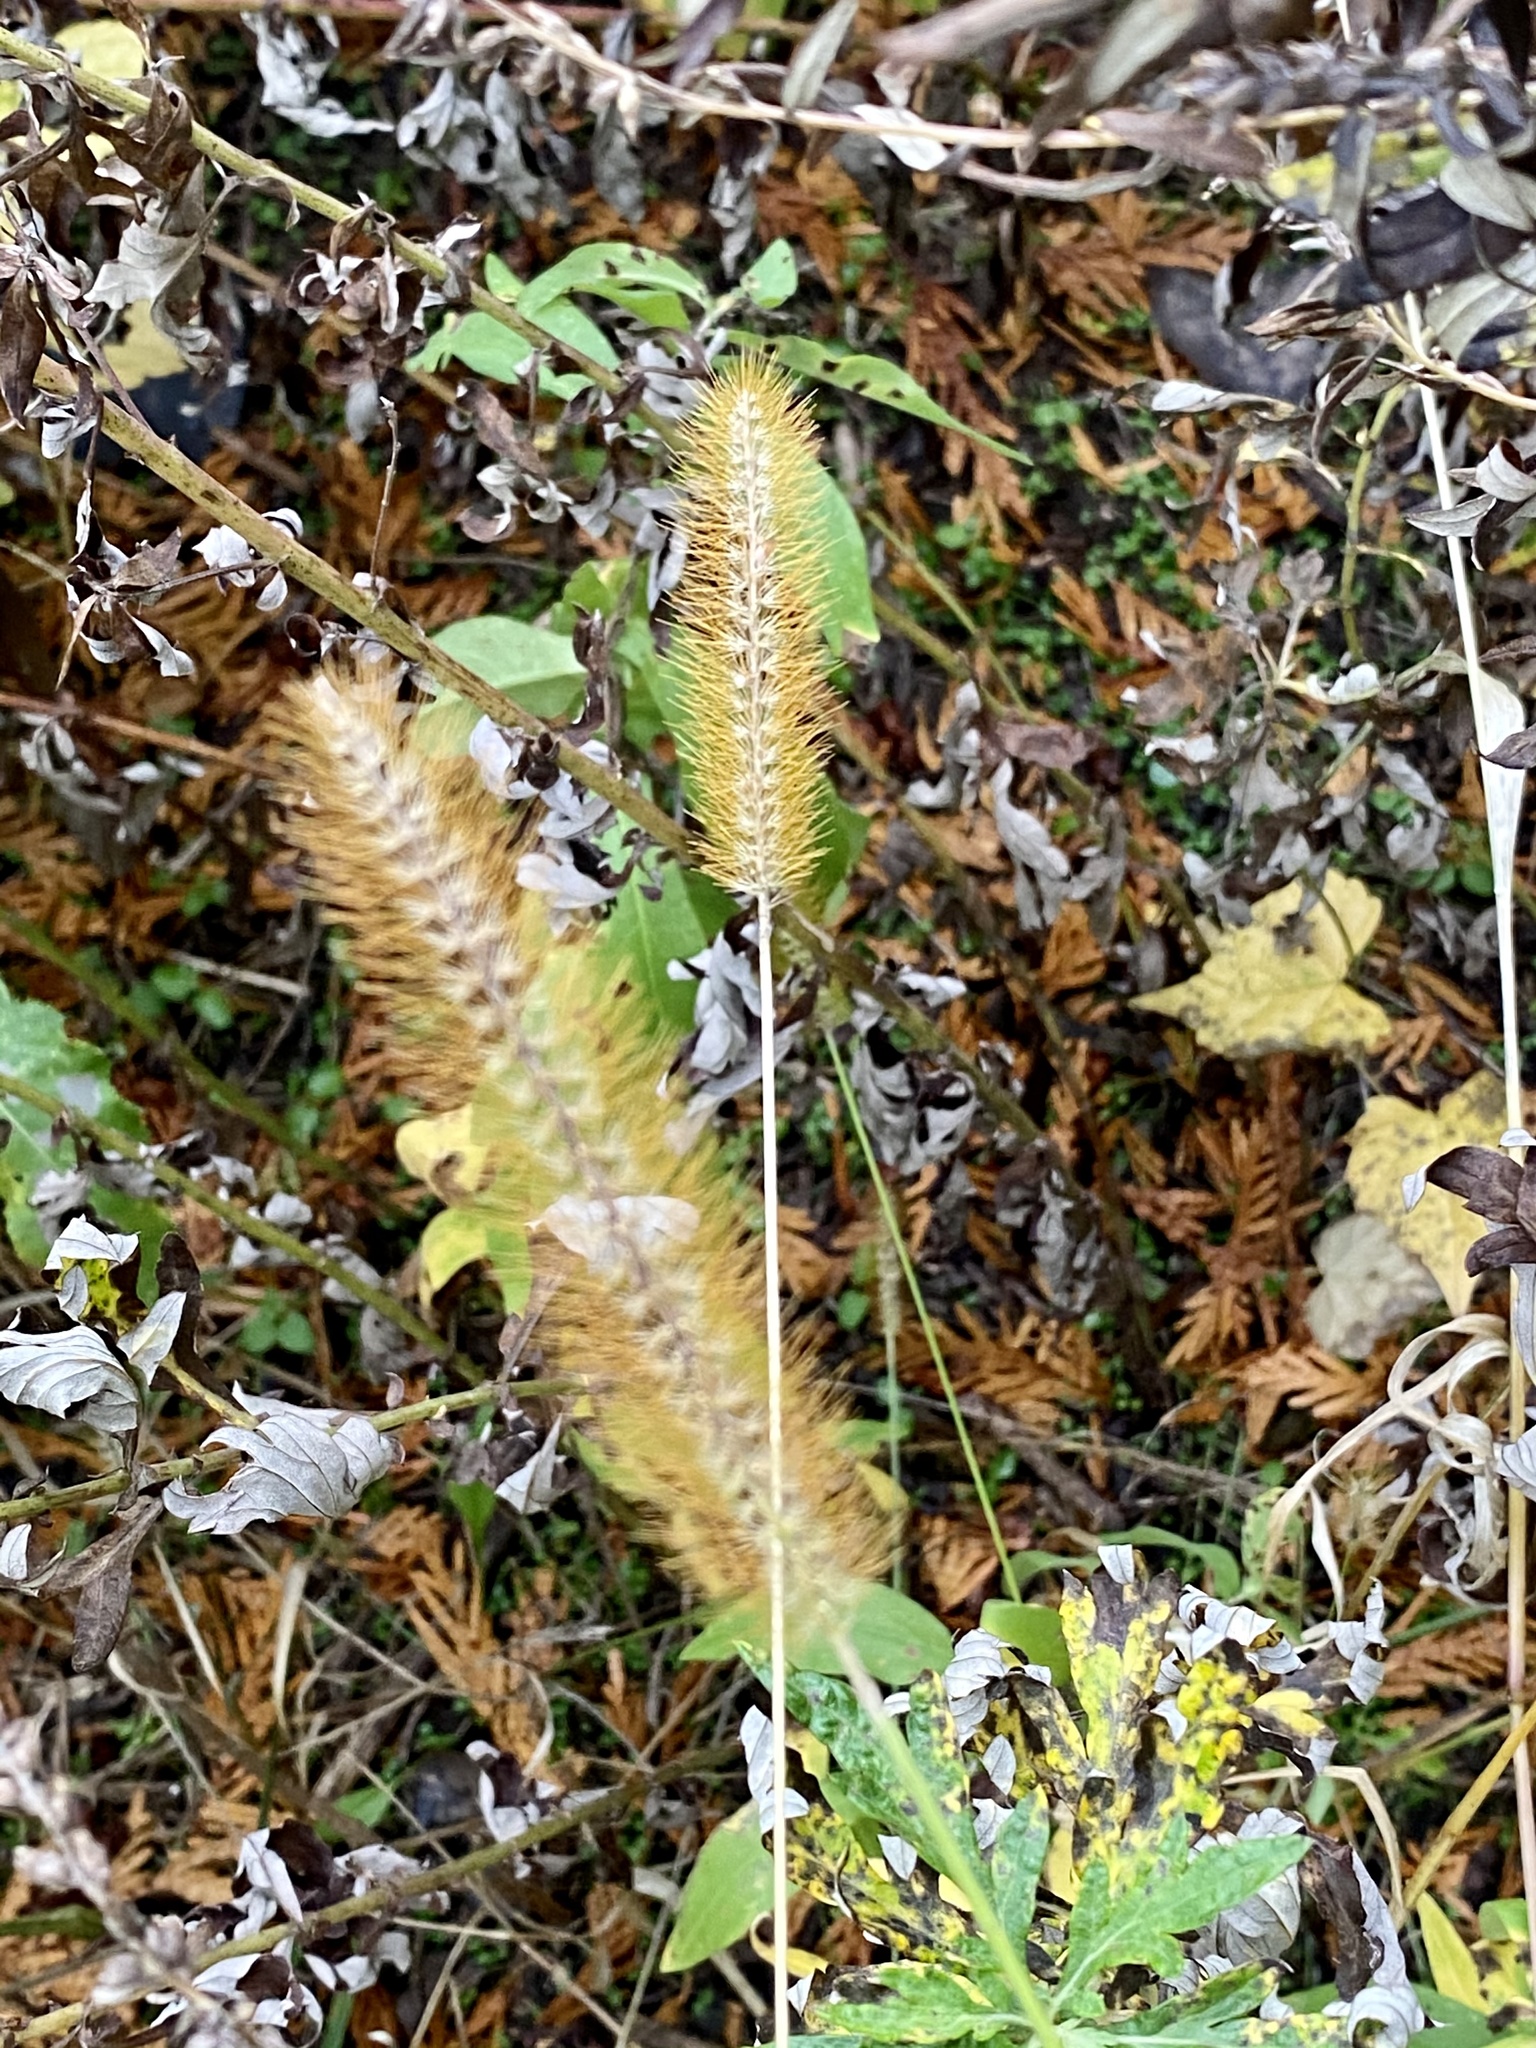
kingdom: Plantae
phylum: Tracheophyta
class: Liliopsida
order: Poales
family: Poaceae
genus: Setaria
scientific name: Setaria pumila
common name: Yellow bristle-grass
